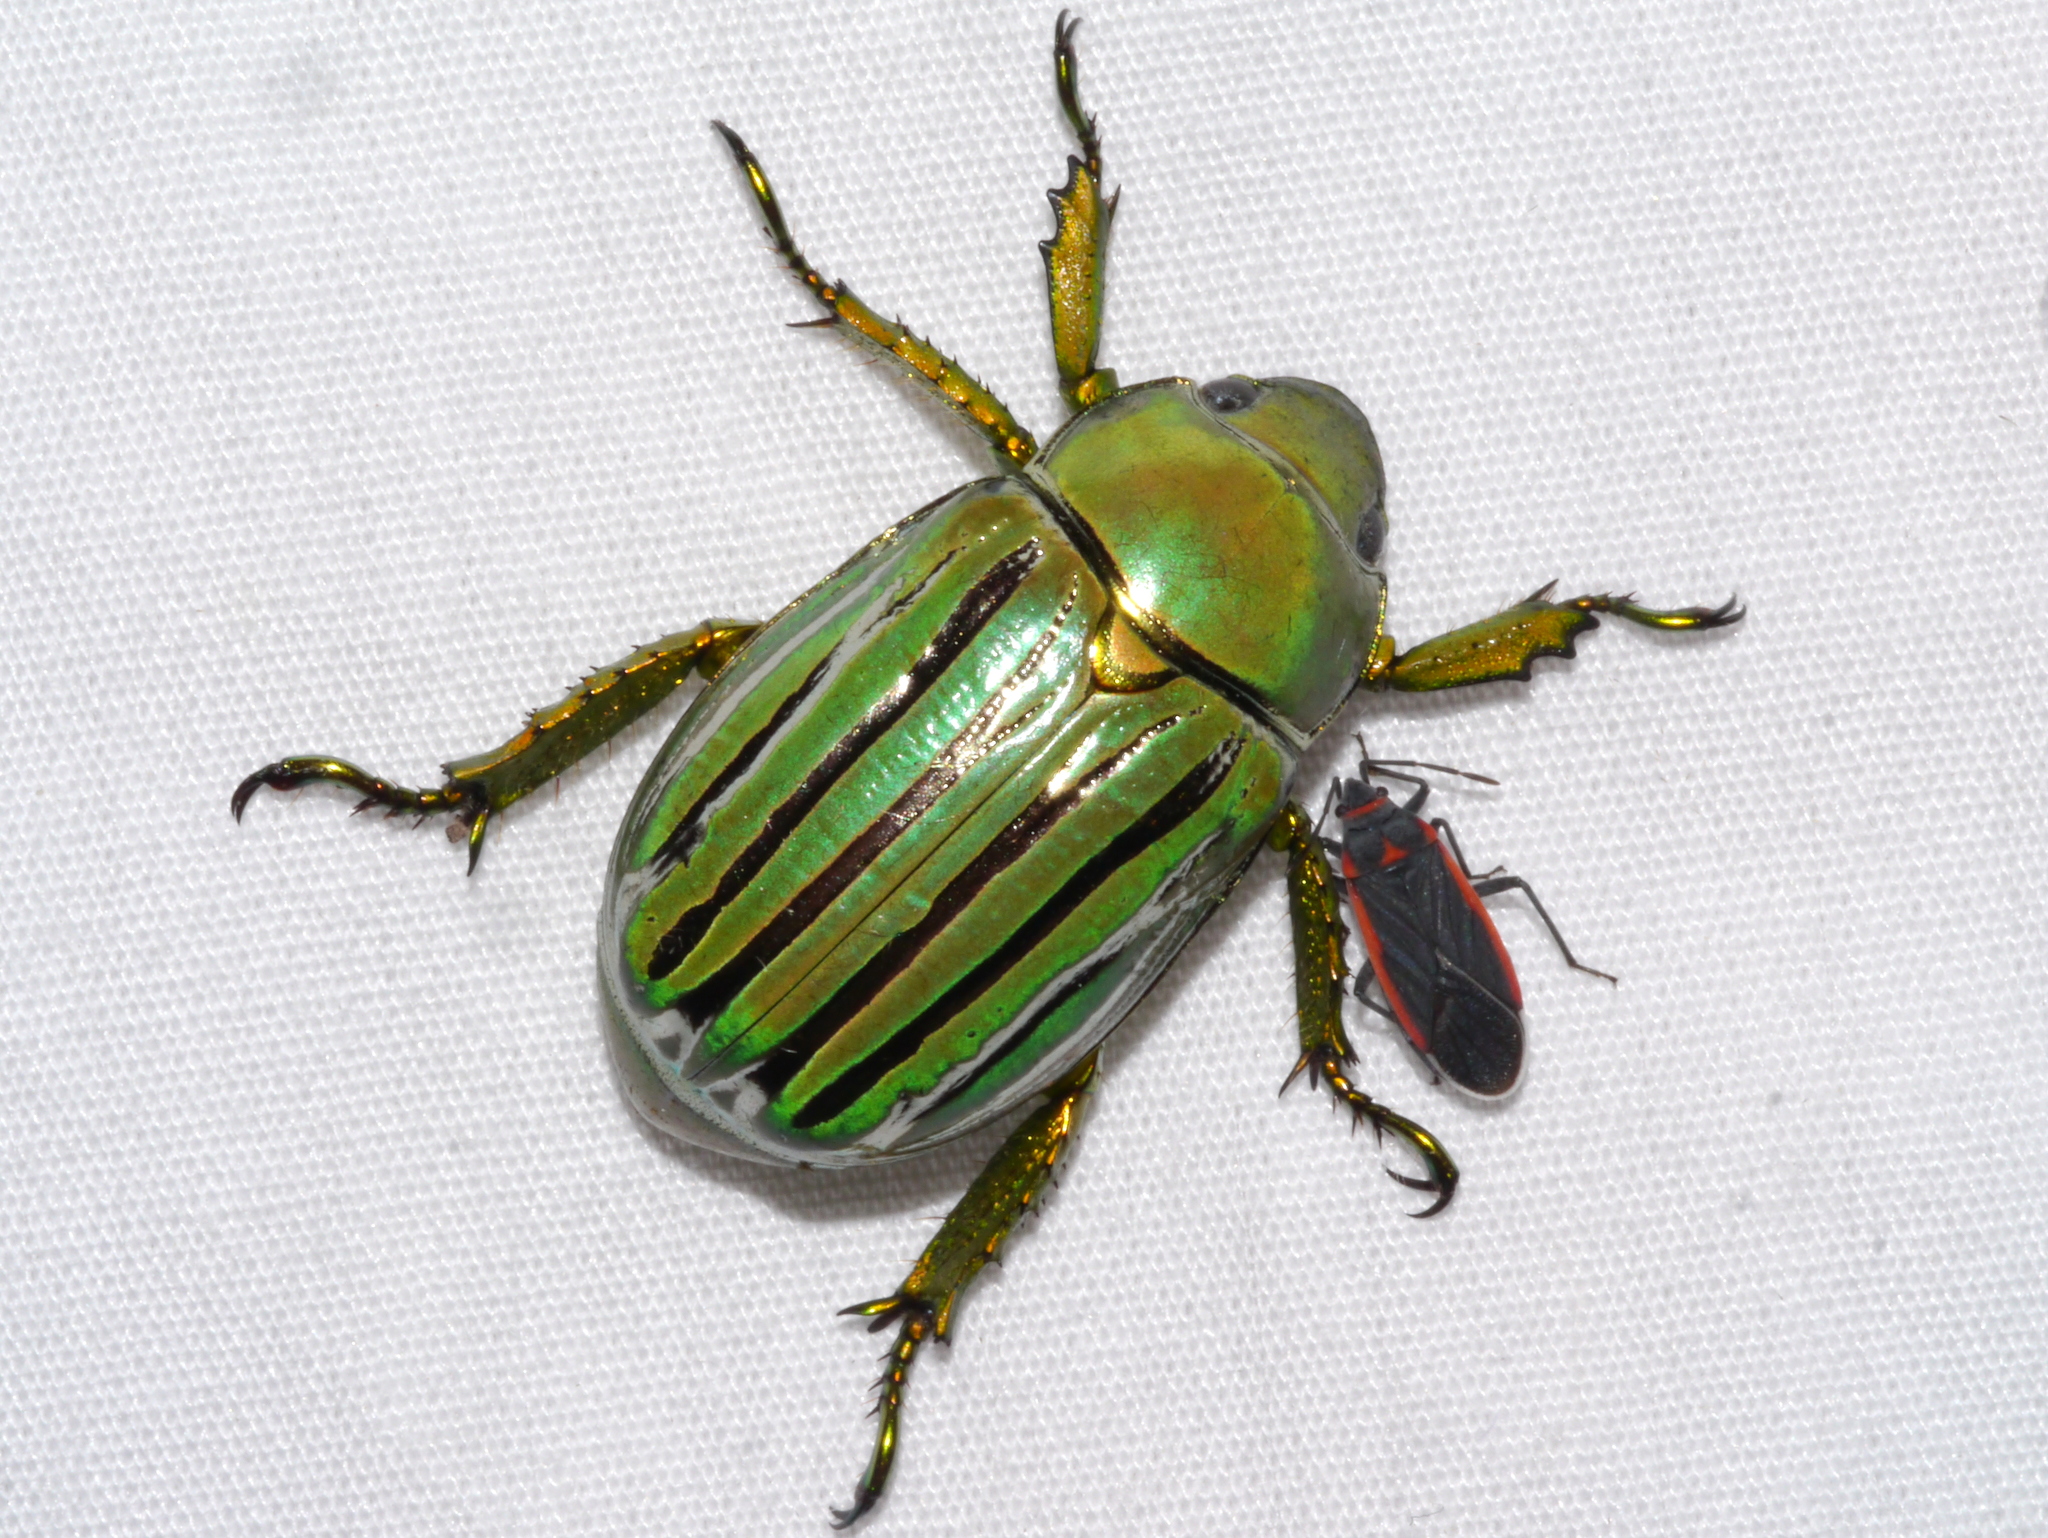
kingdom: Animalia
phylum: Arthropoda
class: Insecta
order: Coleoptera
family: Scarabaeidae
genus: Chrysina
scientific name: Chrysina gloriosa
